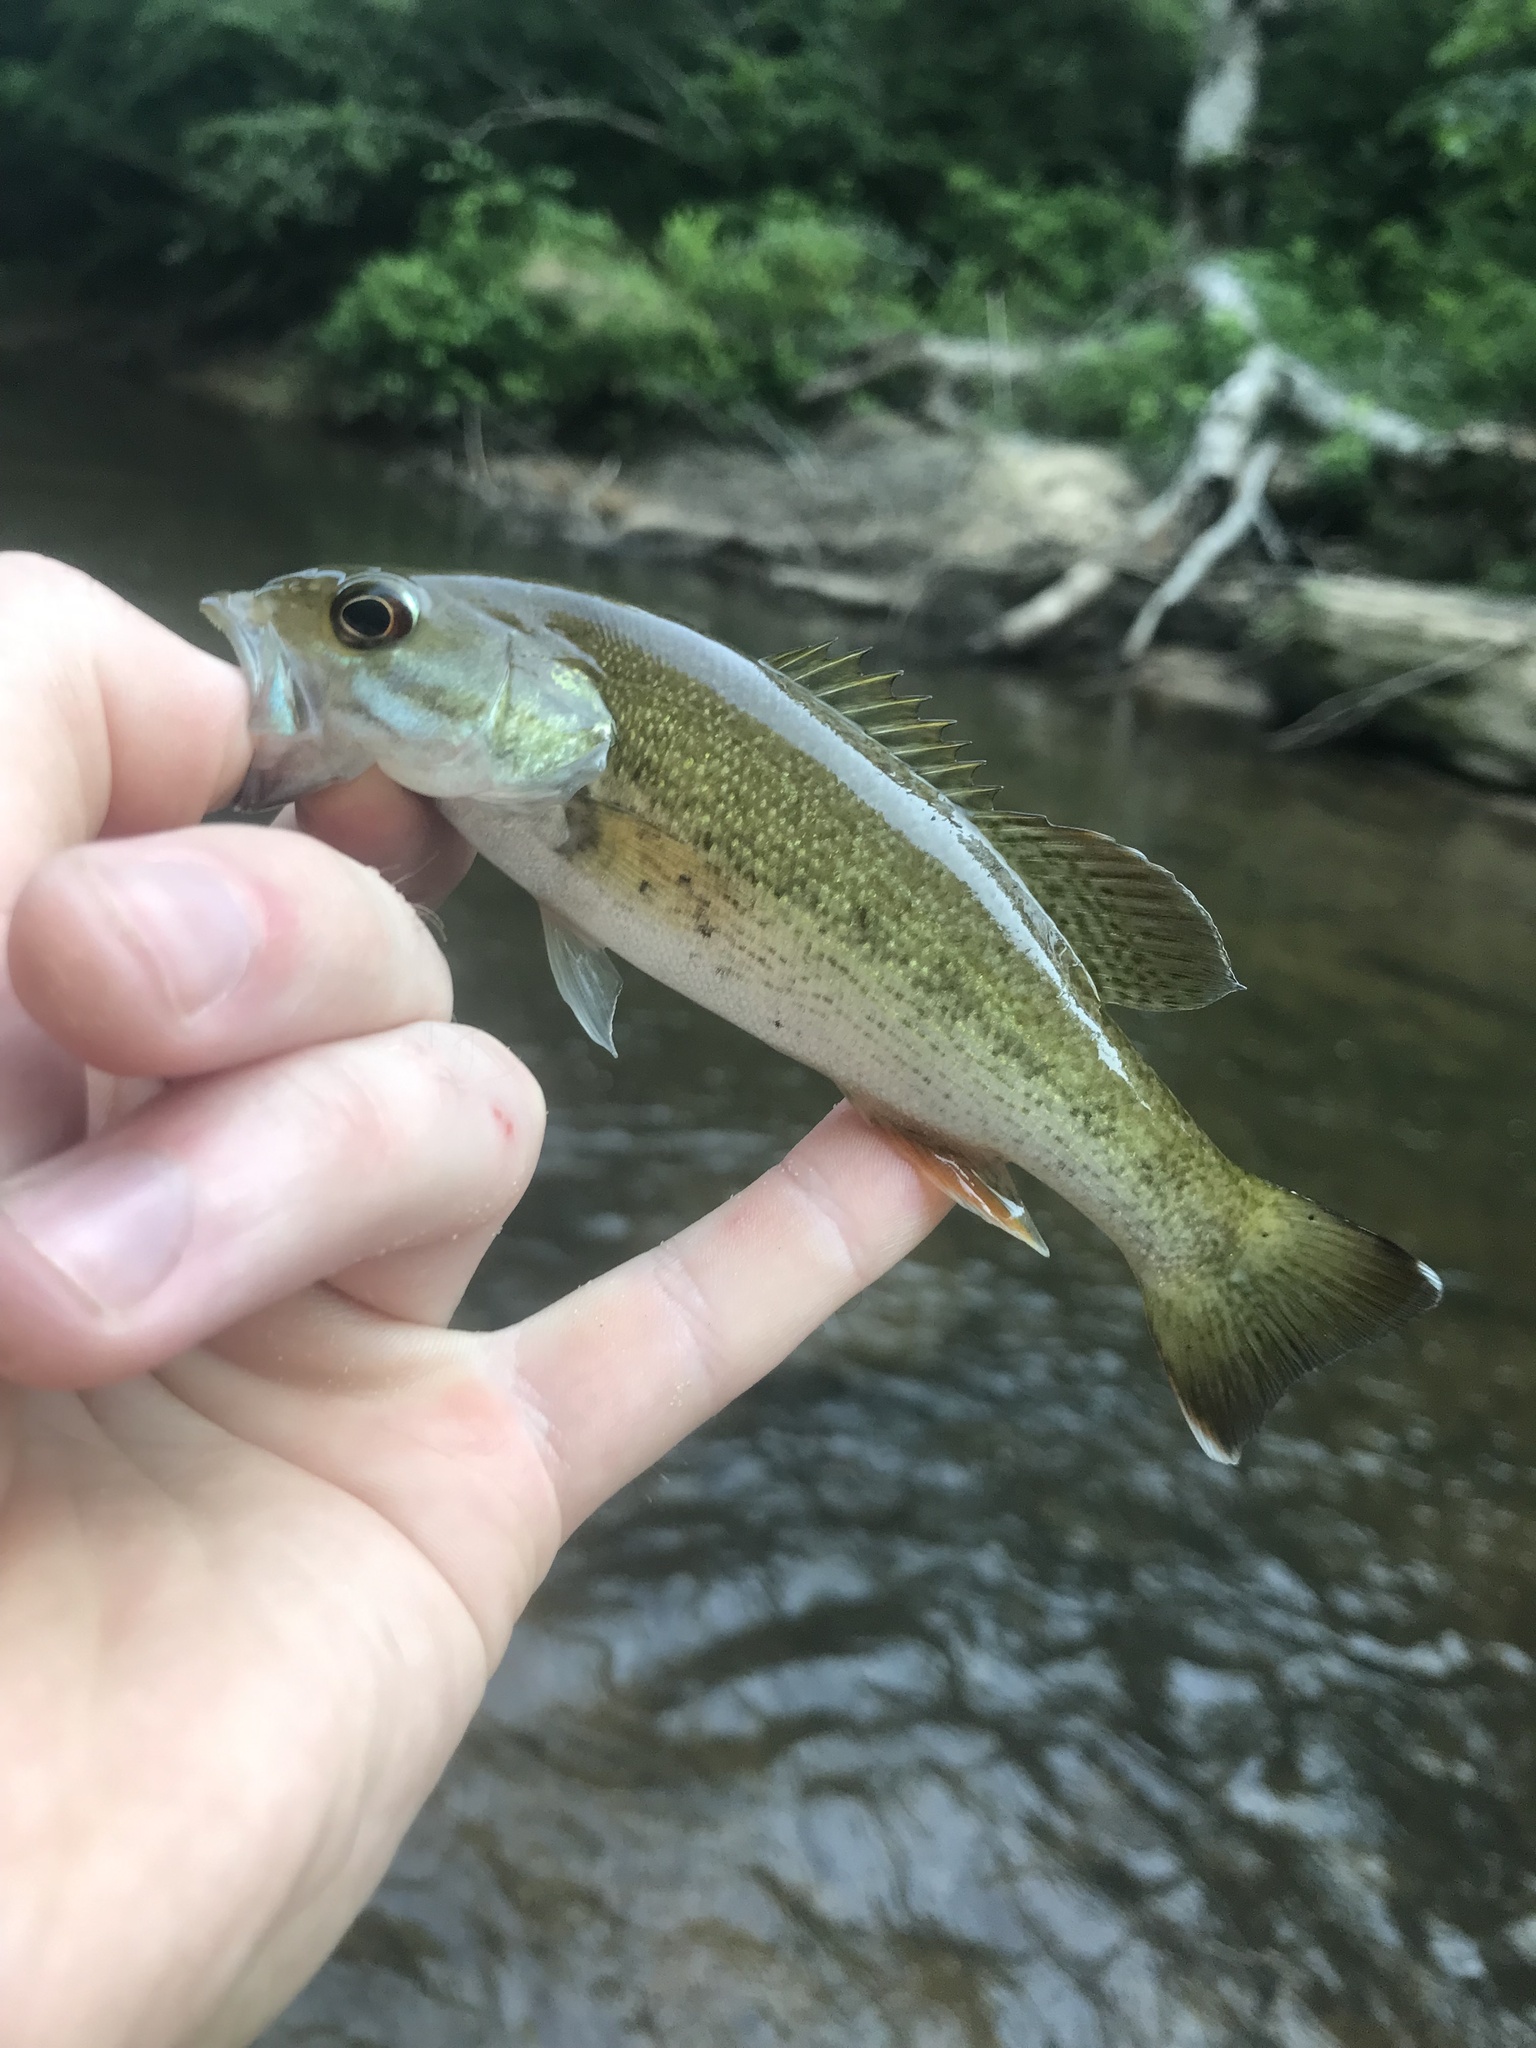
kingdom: Animalia
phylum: Chordata
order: Perciformes
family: Centrarchidae
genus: Micropterus
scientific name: Micropterus warriorensis
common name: Warrior bass
